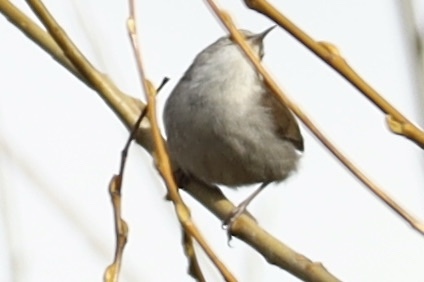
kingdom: Animalia
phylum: Chordata
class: Aves
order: Passeriformes
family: Troglodytidae
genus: Thryomanes
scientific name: Thryomanes bewickii
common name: Bewick's wren
